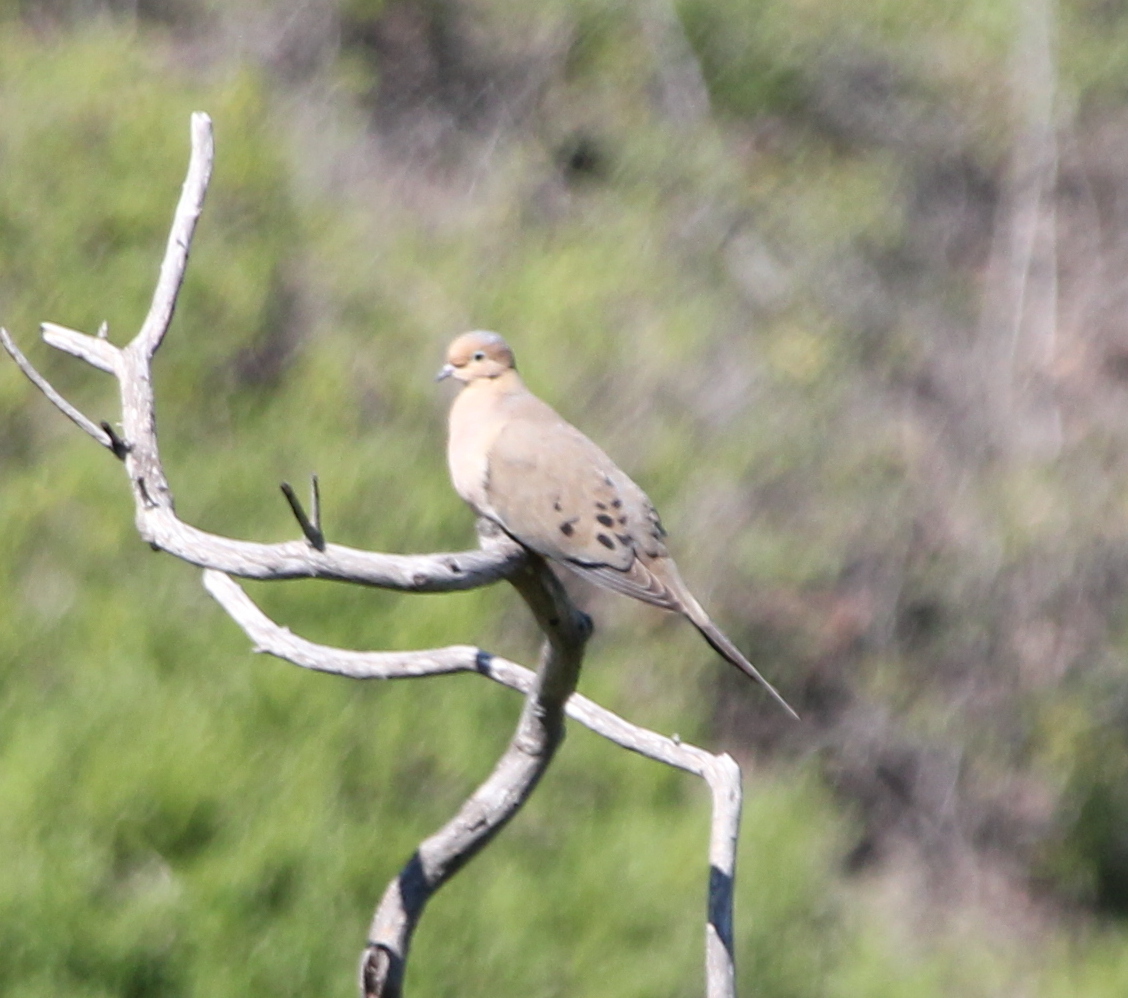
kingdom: Animalia
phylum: Chordata
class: Aves
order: Columbiformes
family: Columbidae
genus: Zenaida
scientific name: Zenaida macroura
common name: Mourning dove
